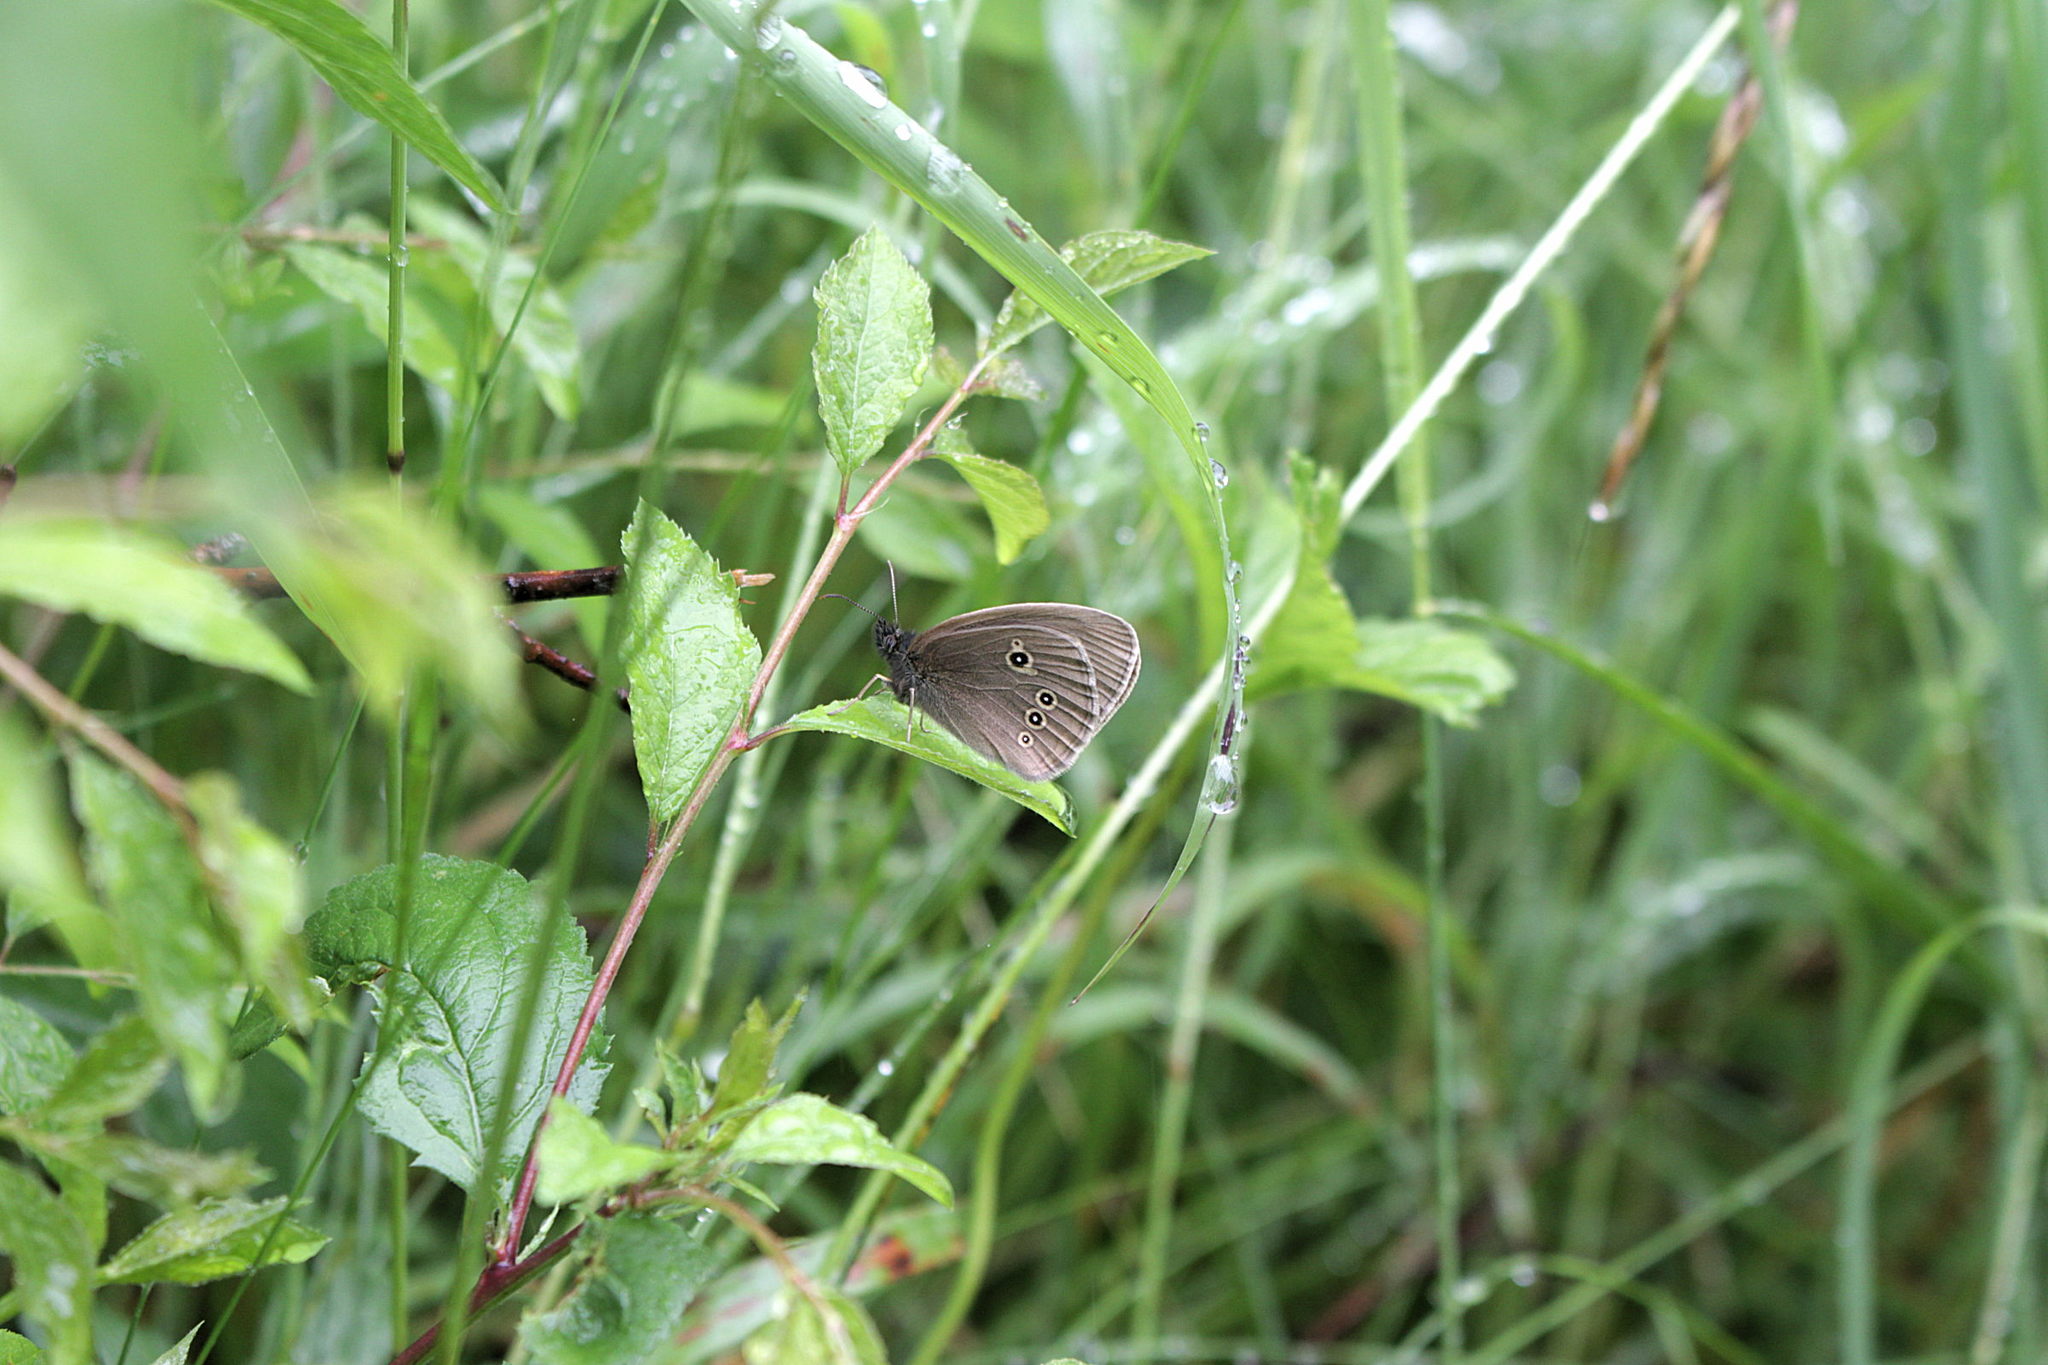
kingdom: Animalia
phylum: Arthropoda
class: Insecta
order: Lepidoptera
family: Nymphalidae
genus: Aphantopus
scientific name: Aphantopus hyperantus
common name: Ringlet
